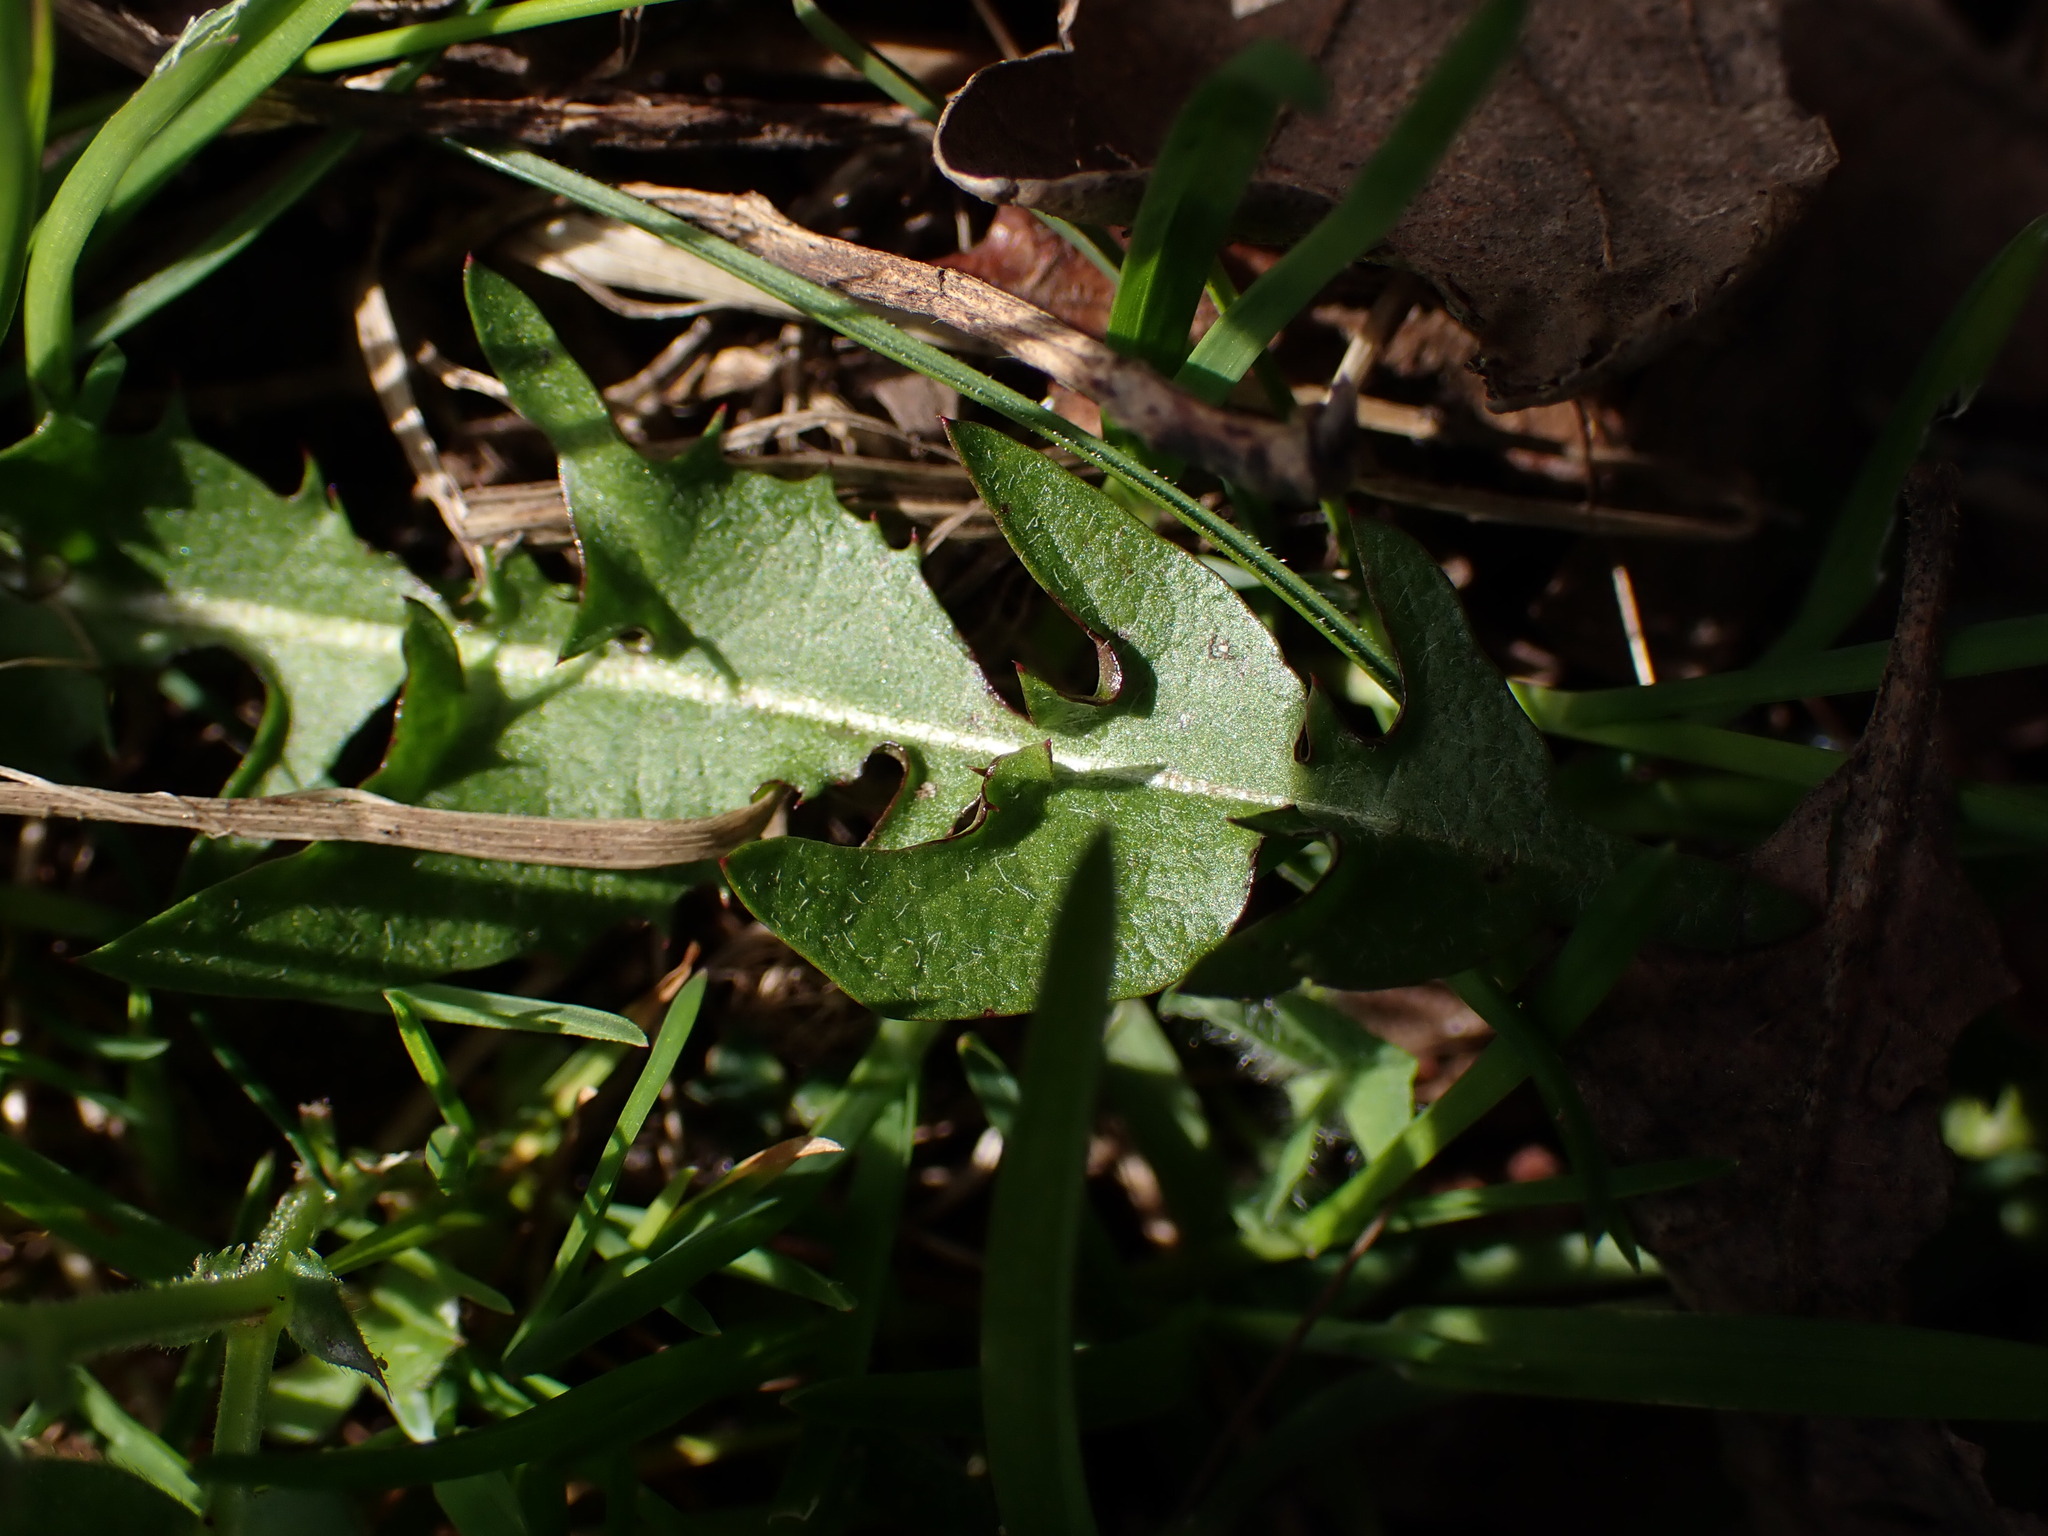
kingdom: Plantae
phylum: Tracheophyta
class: Magnoliopsida
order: Asterales
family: Asteraceae
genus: Taraxacum
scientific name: Taraxacum officinale
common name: Common dandelion
